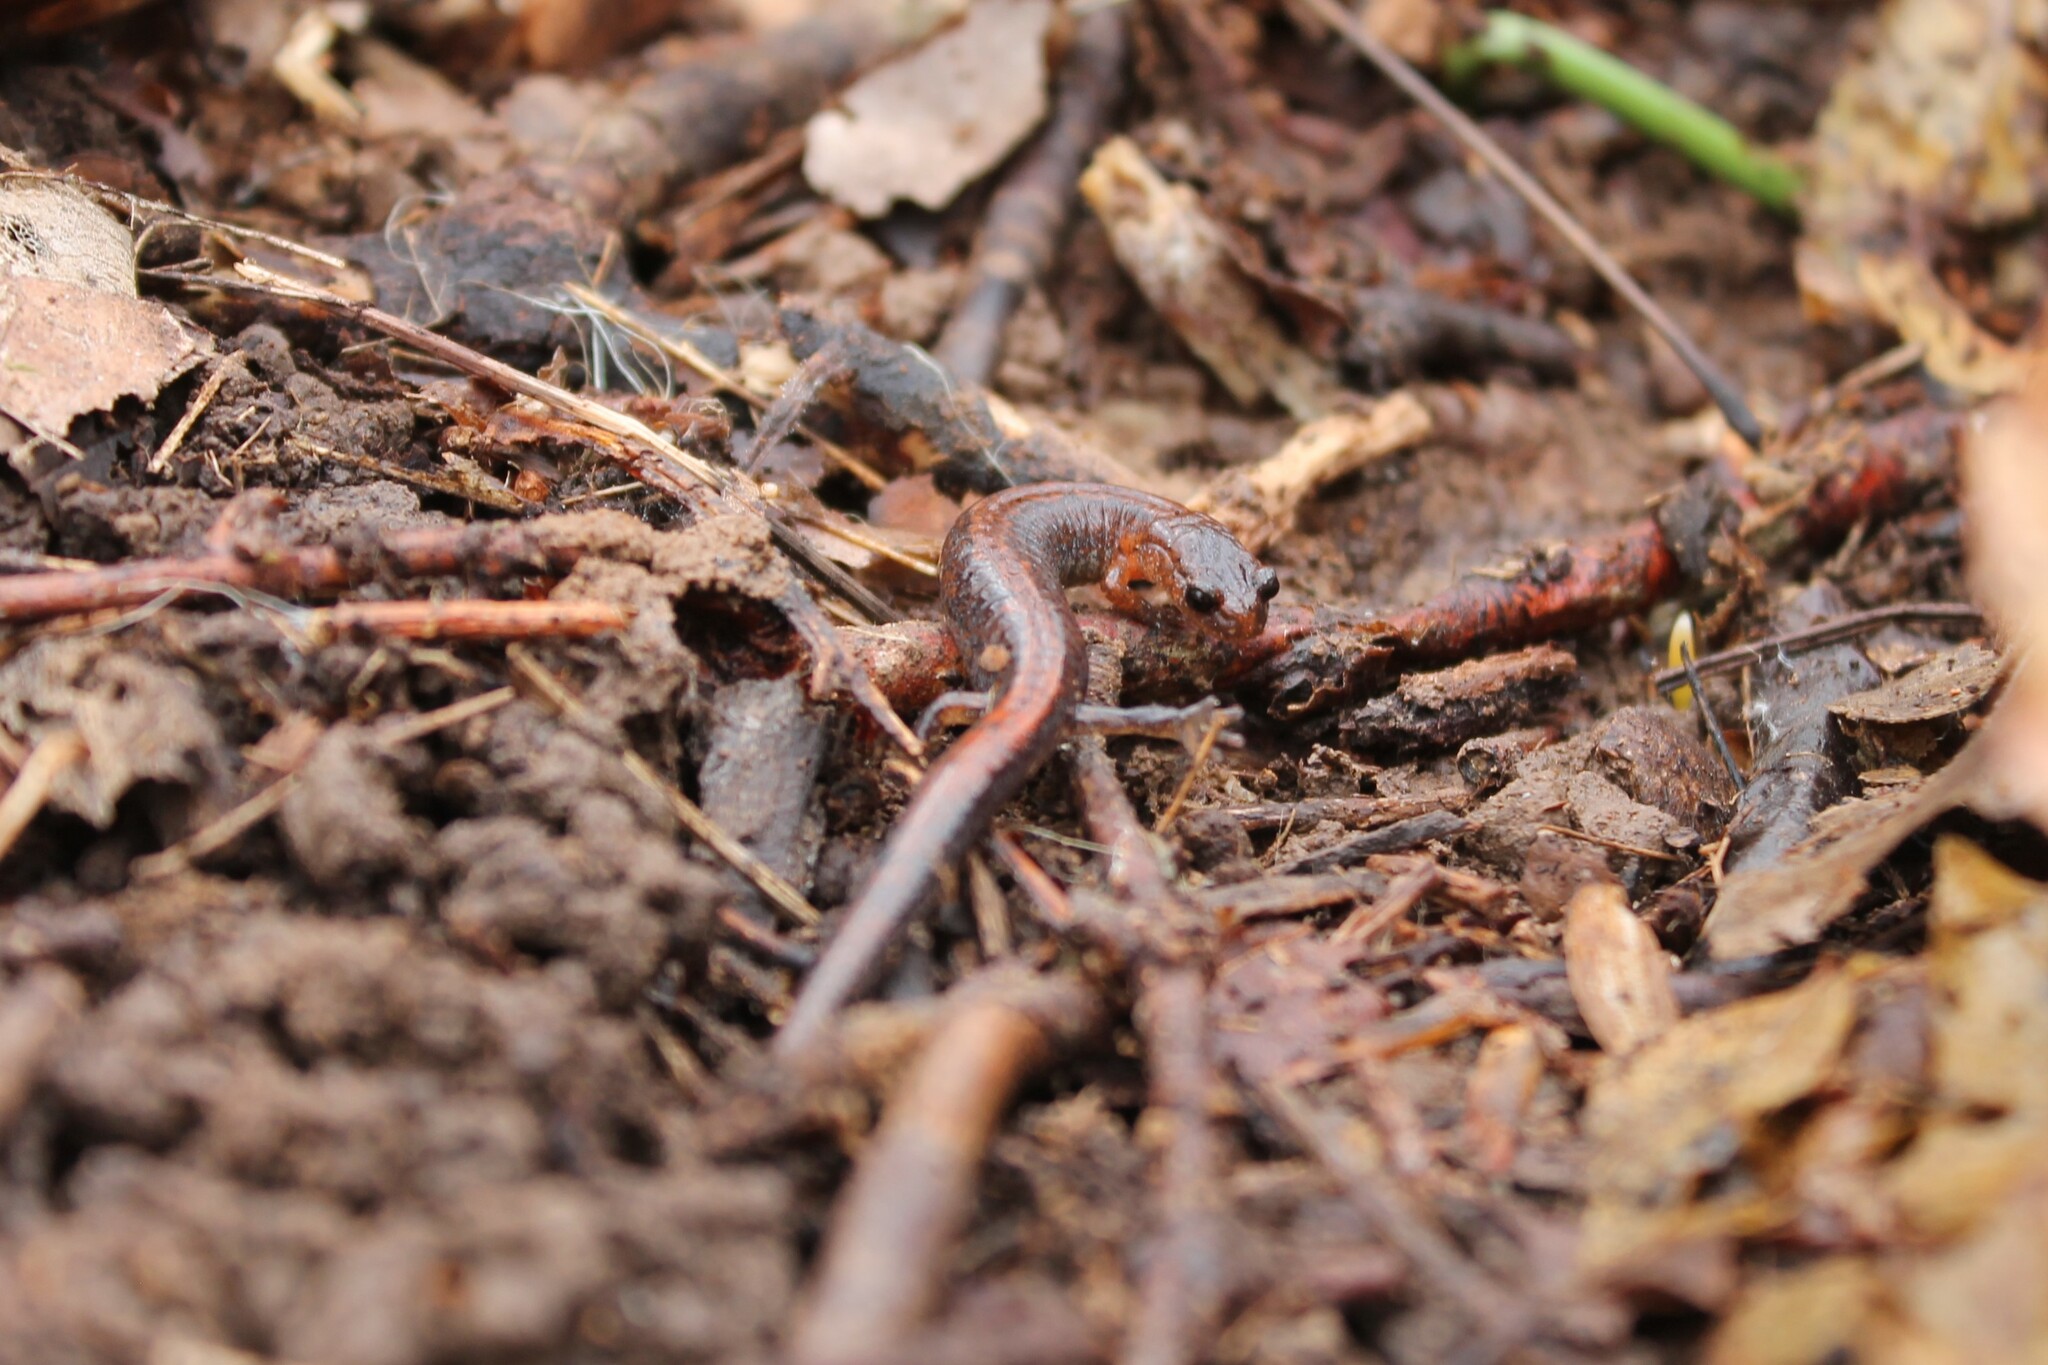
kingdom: Animalia
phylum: Chordata
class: Amphibia
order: Caudata
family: Plethodontidae
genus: Plethodon
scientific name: Plethodon dorsalis
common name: Northern zigzag salamander
